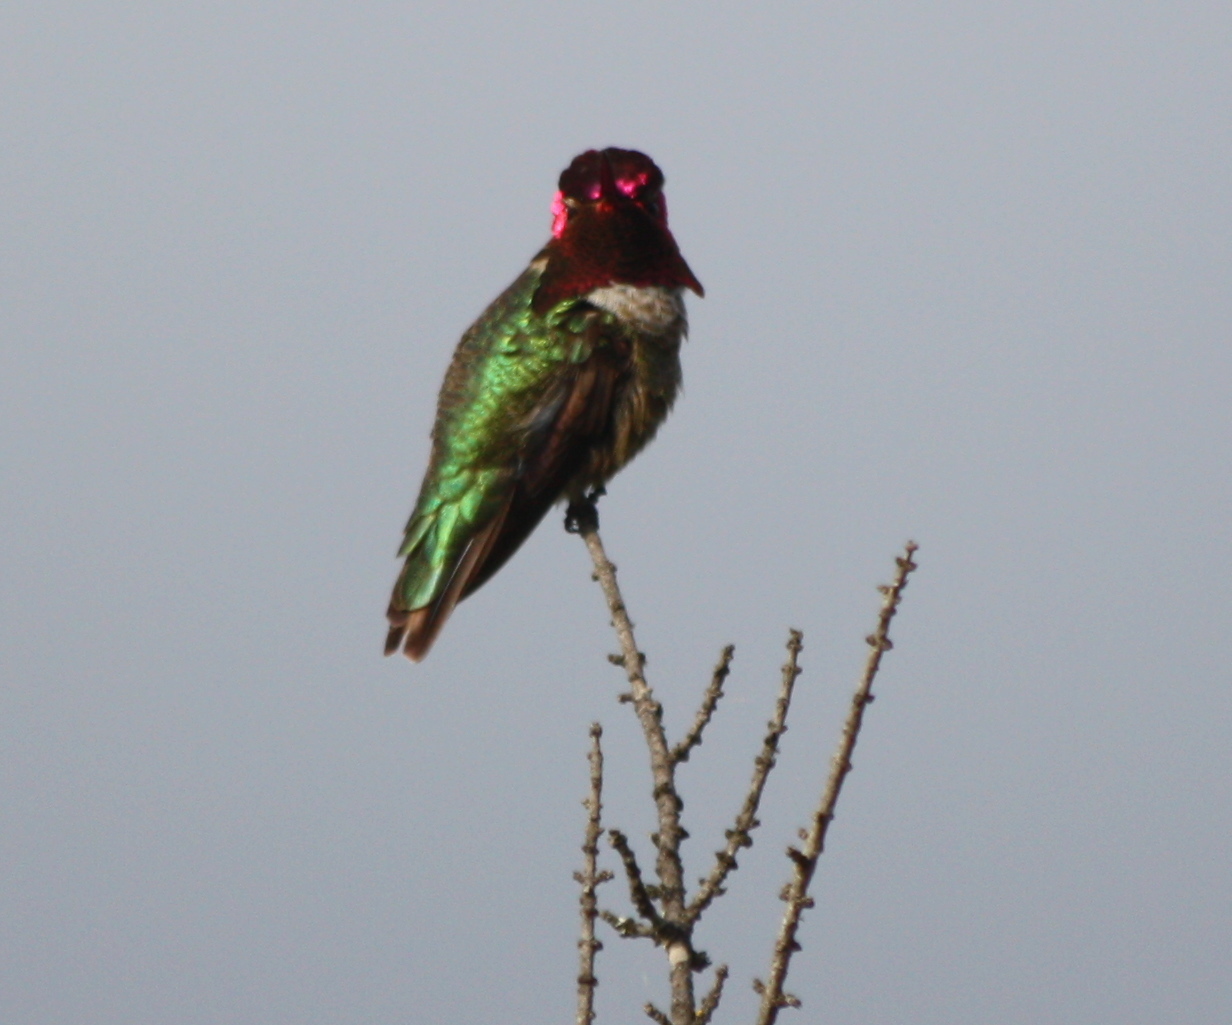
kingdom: Animalia
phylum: Chordata
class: Aves
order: Apodiformes
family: Trochilidae
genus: Calypte
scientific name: Calypte anna
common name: Anna's hummingbird
